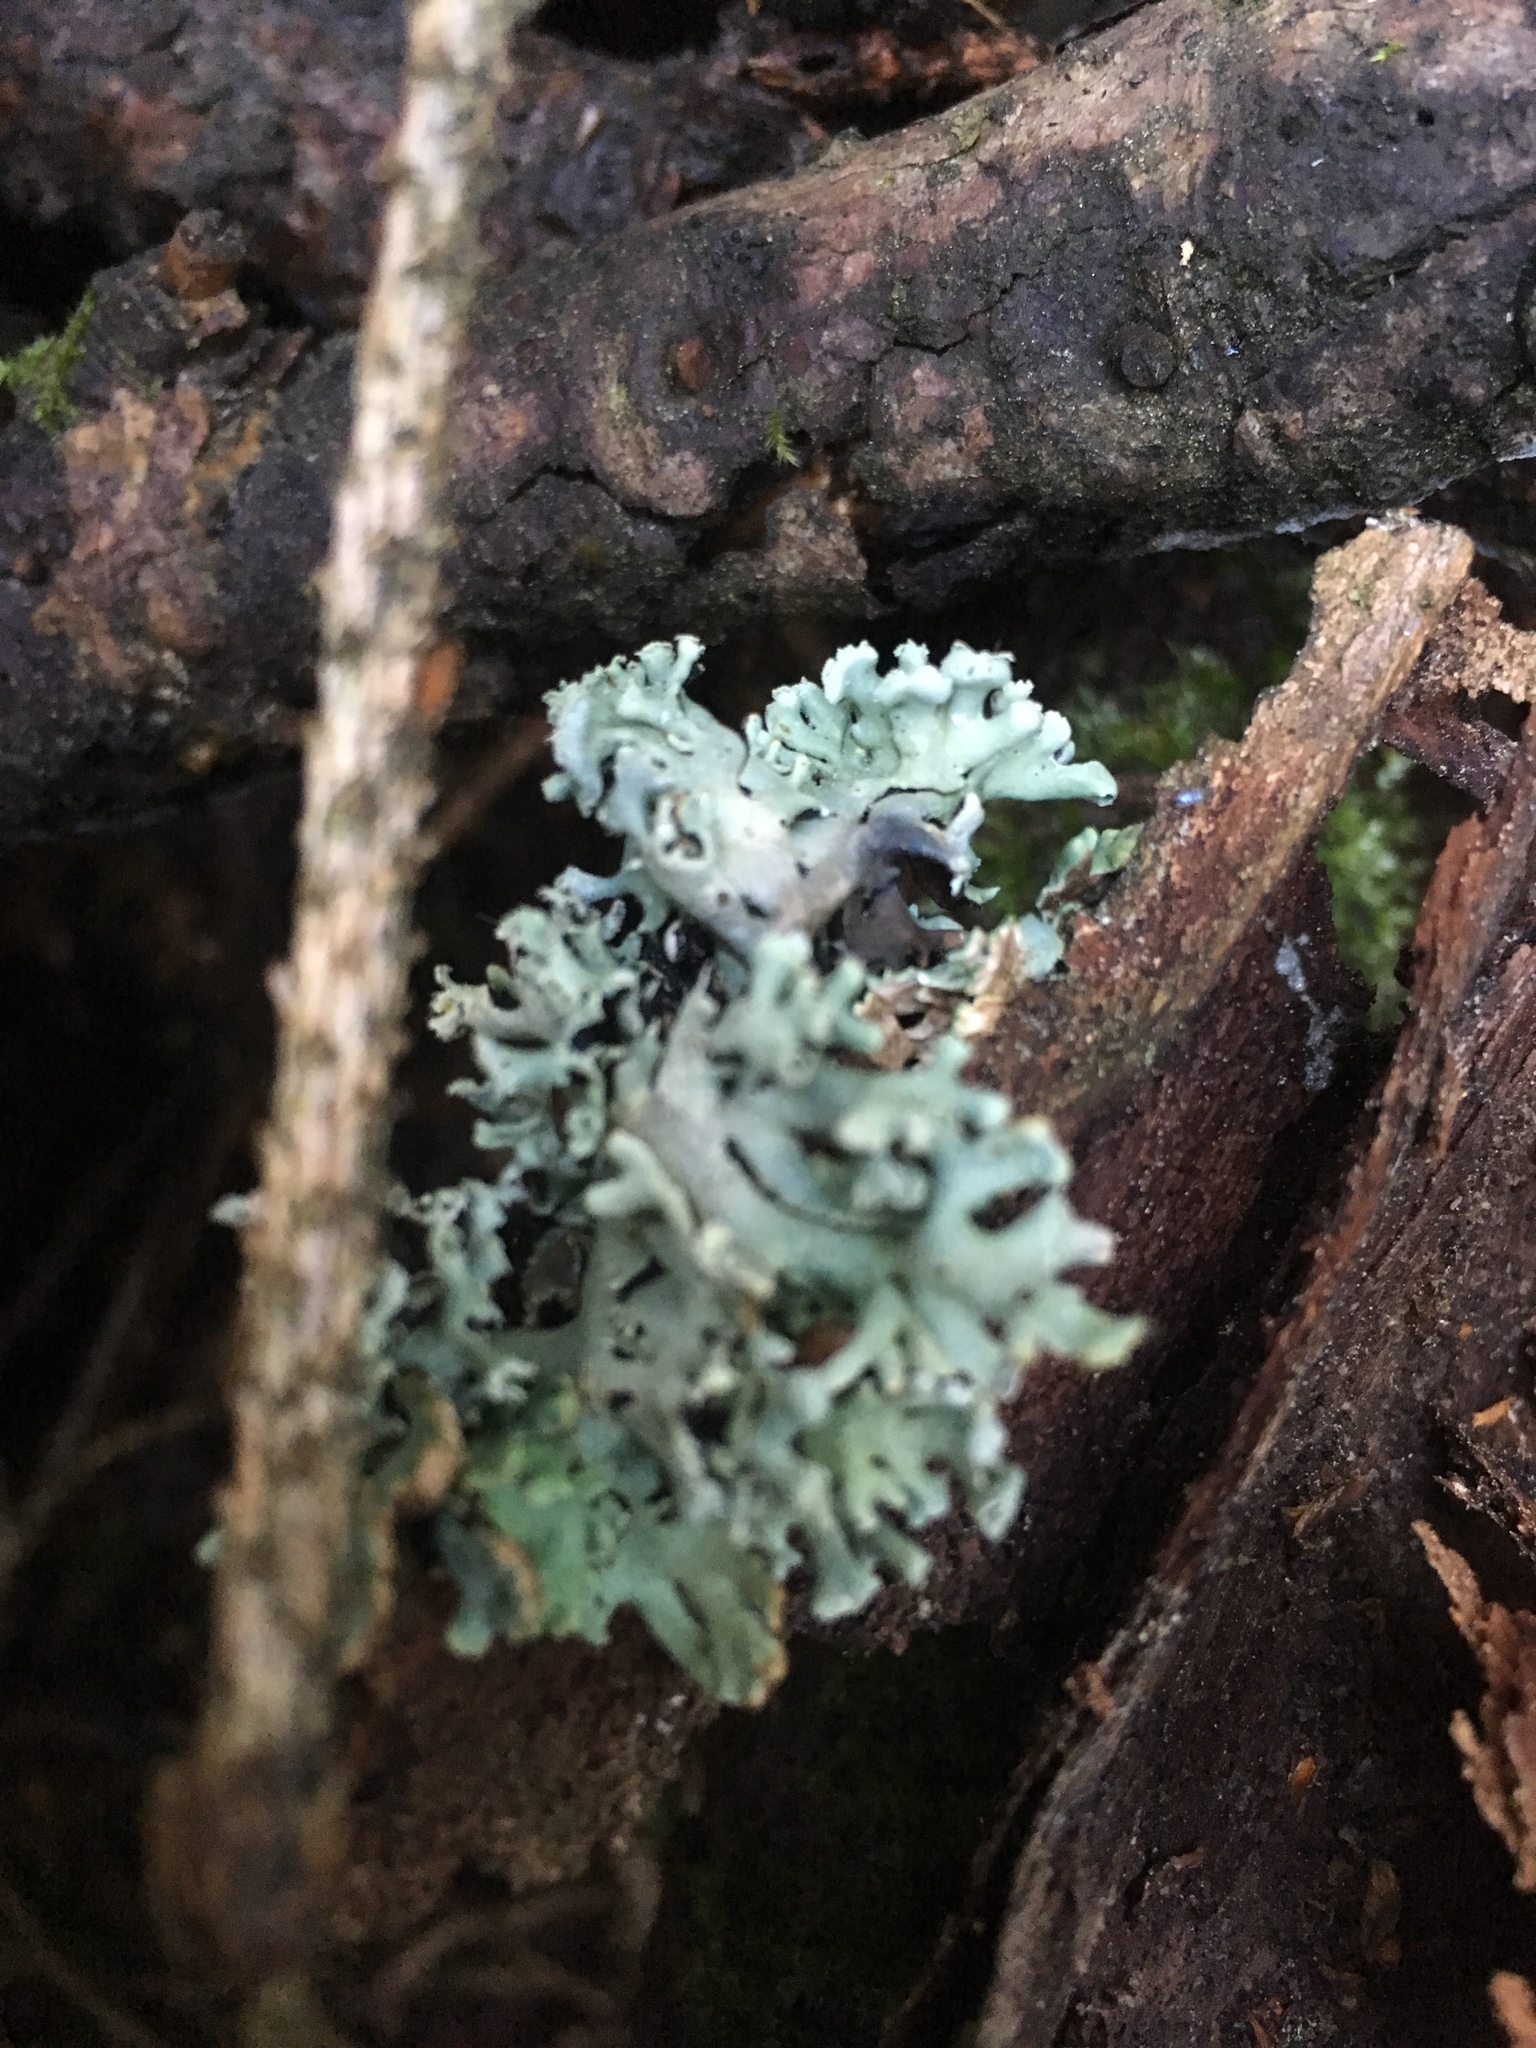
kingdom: Fungi
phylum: Ascomycota
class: Lecanoromycetes
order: Lecanorales
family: Parmeliaceae
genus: Hypogymnia
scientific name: Hypogymnia physodes
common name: Dark crottle
